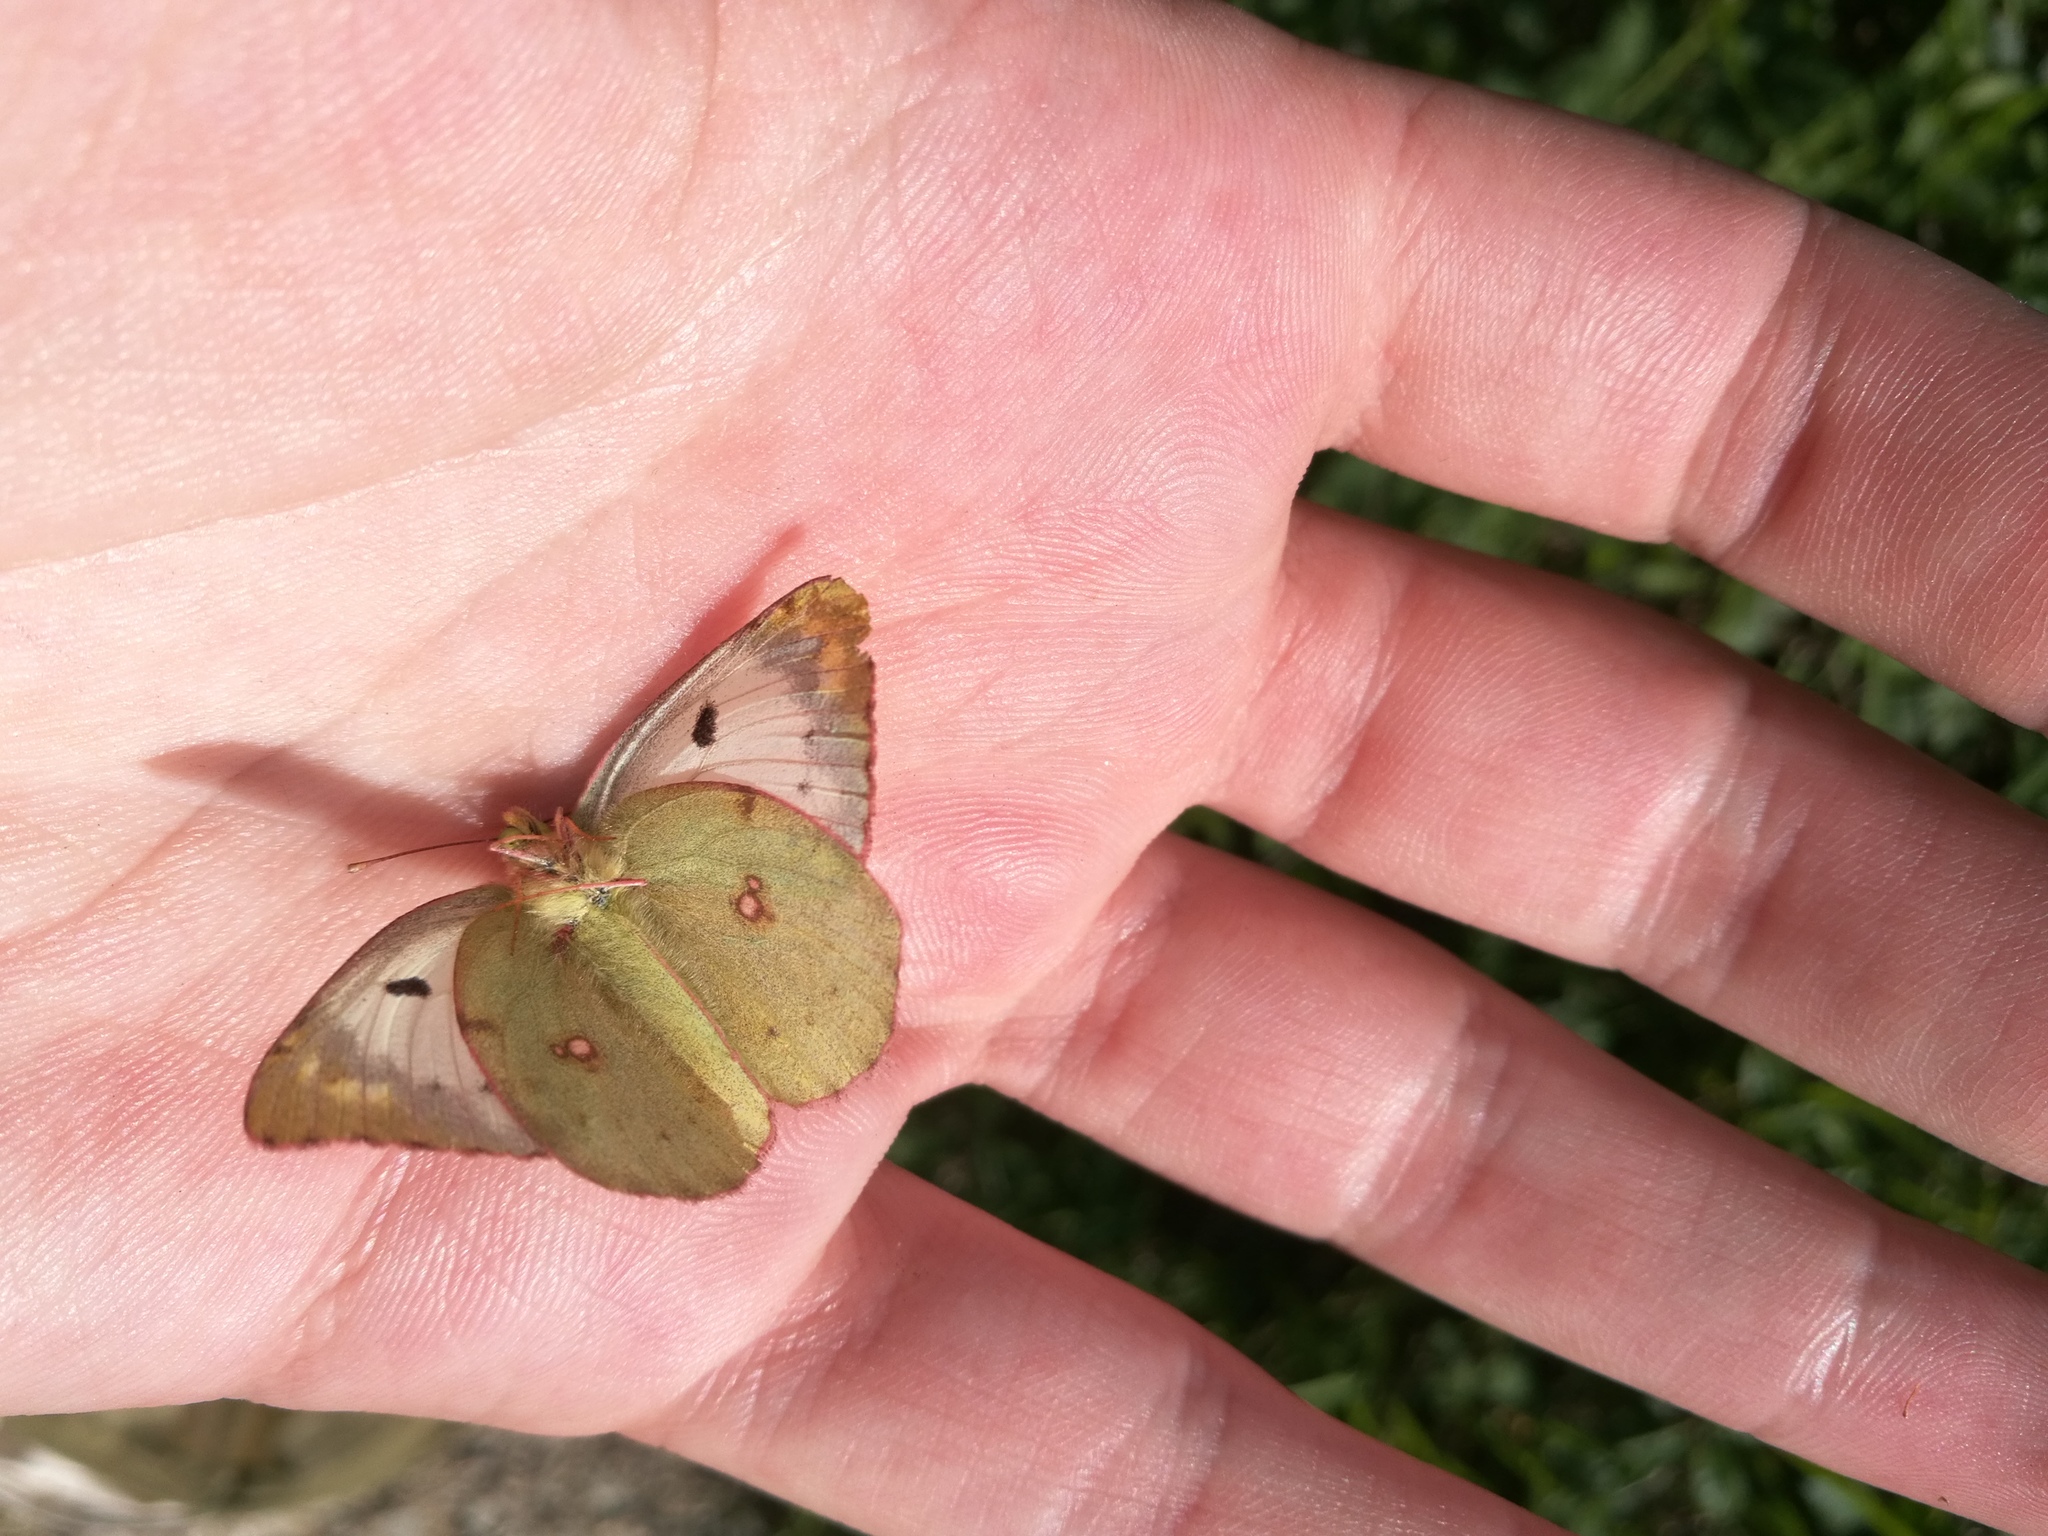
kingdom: Animalia
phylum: Arthropoda
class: Insecta
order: Lepidoptera
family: Pieridae
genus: Colias
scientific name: Colias alfacariensis
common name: Berger's clouded yellow
